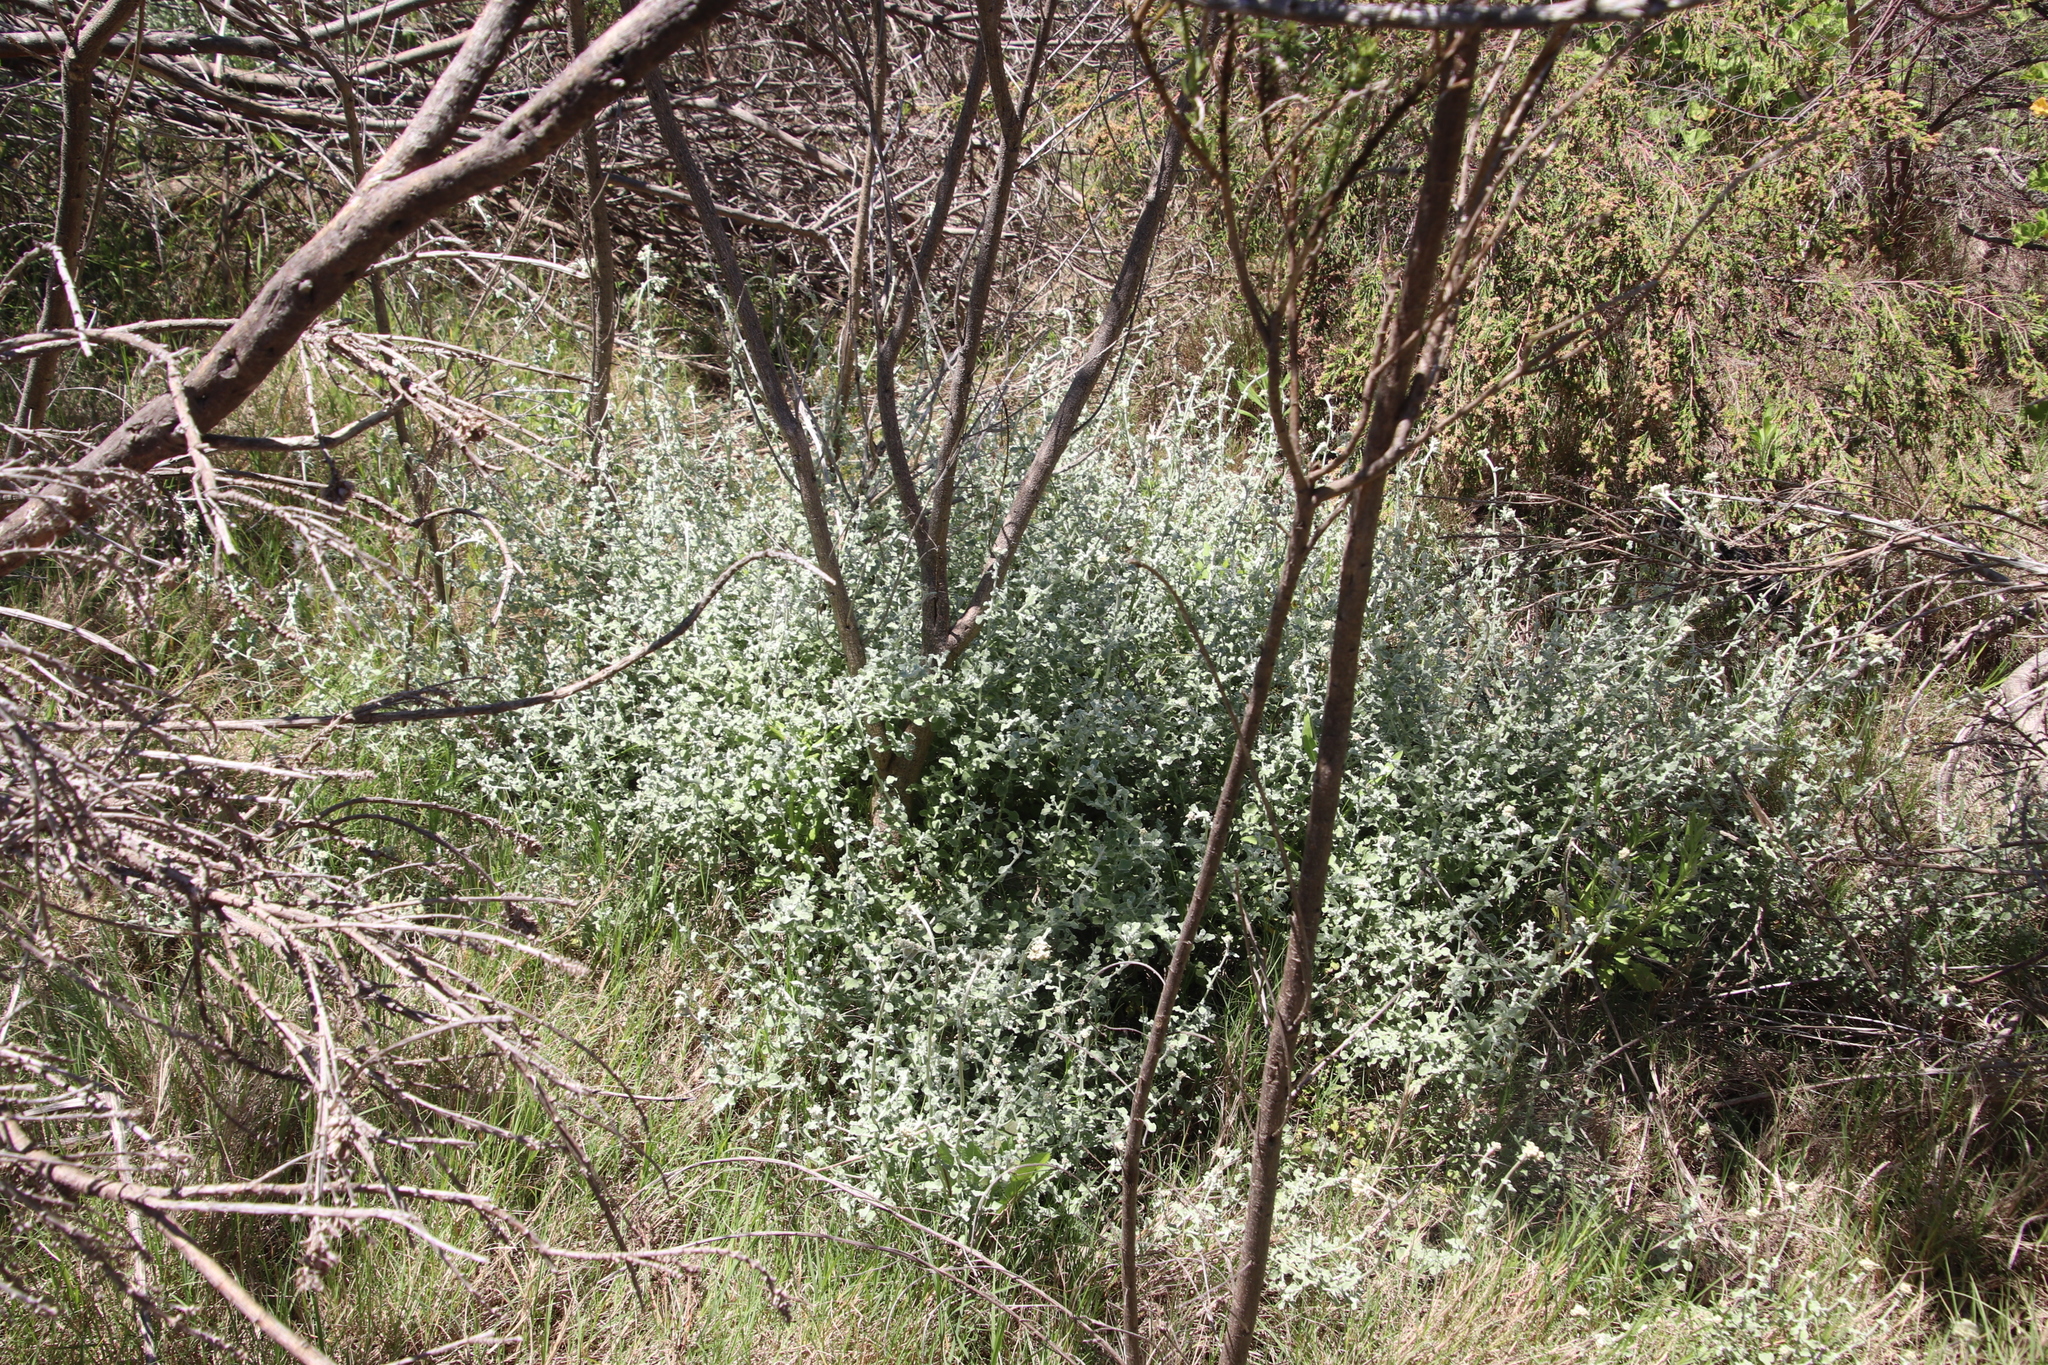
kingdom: Plantae
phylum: Tracheophyta
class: Magnoliopsida
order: Asterales
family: Asteraceae
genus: Helichrysum
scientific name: Helichrysum patulum
